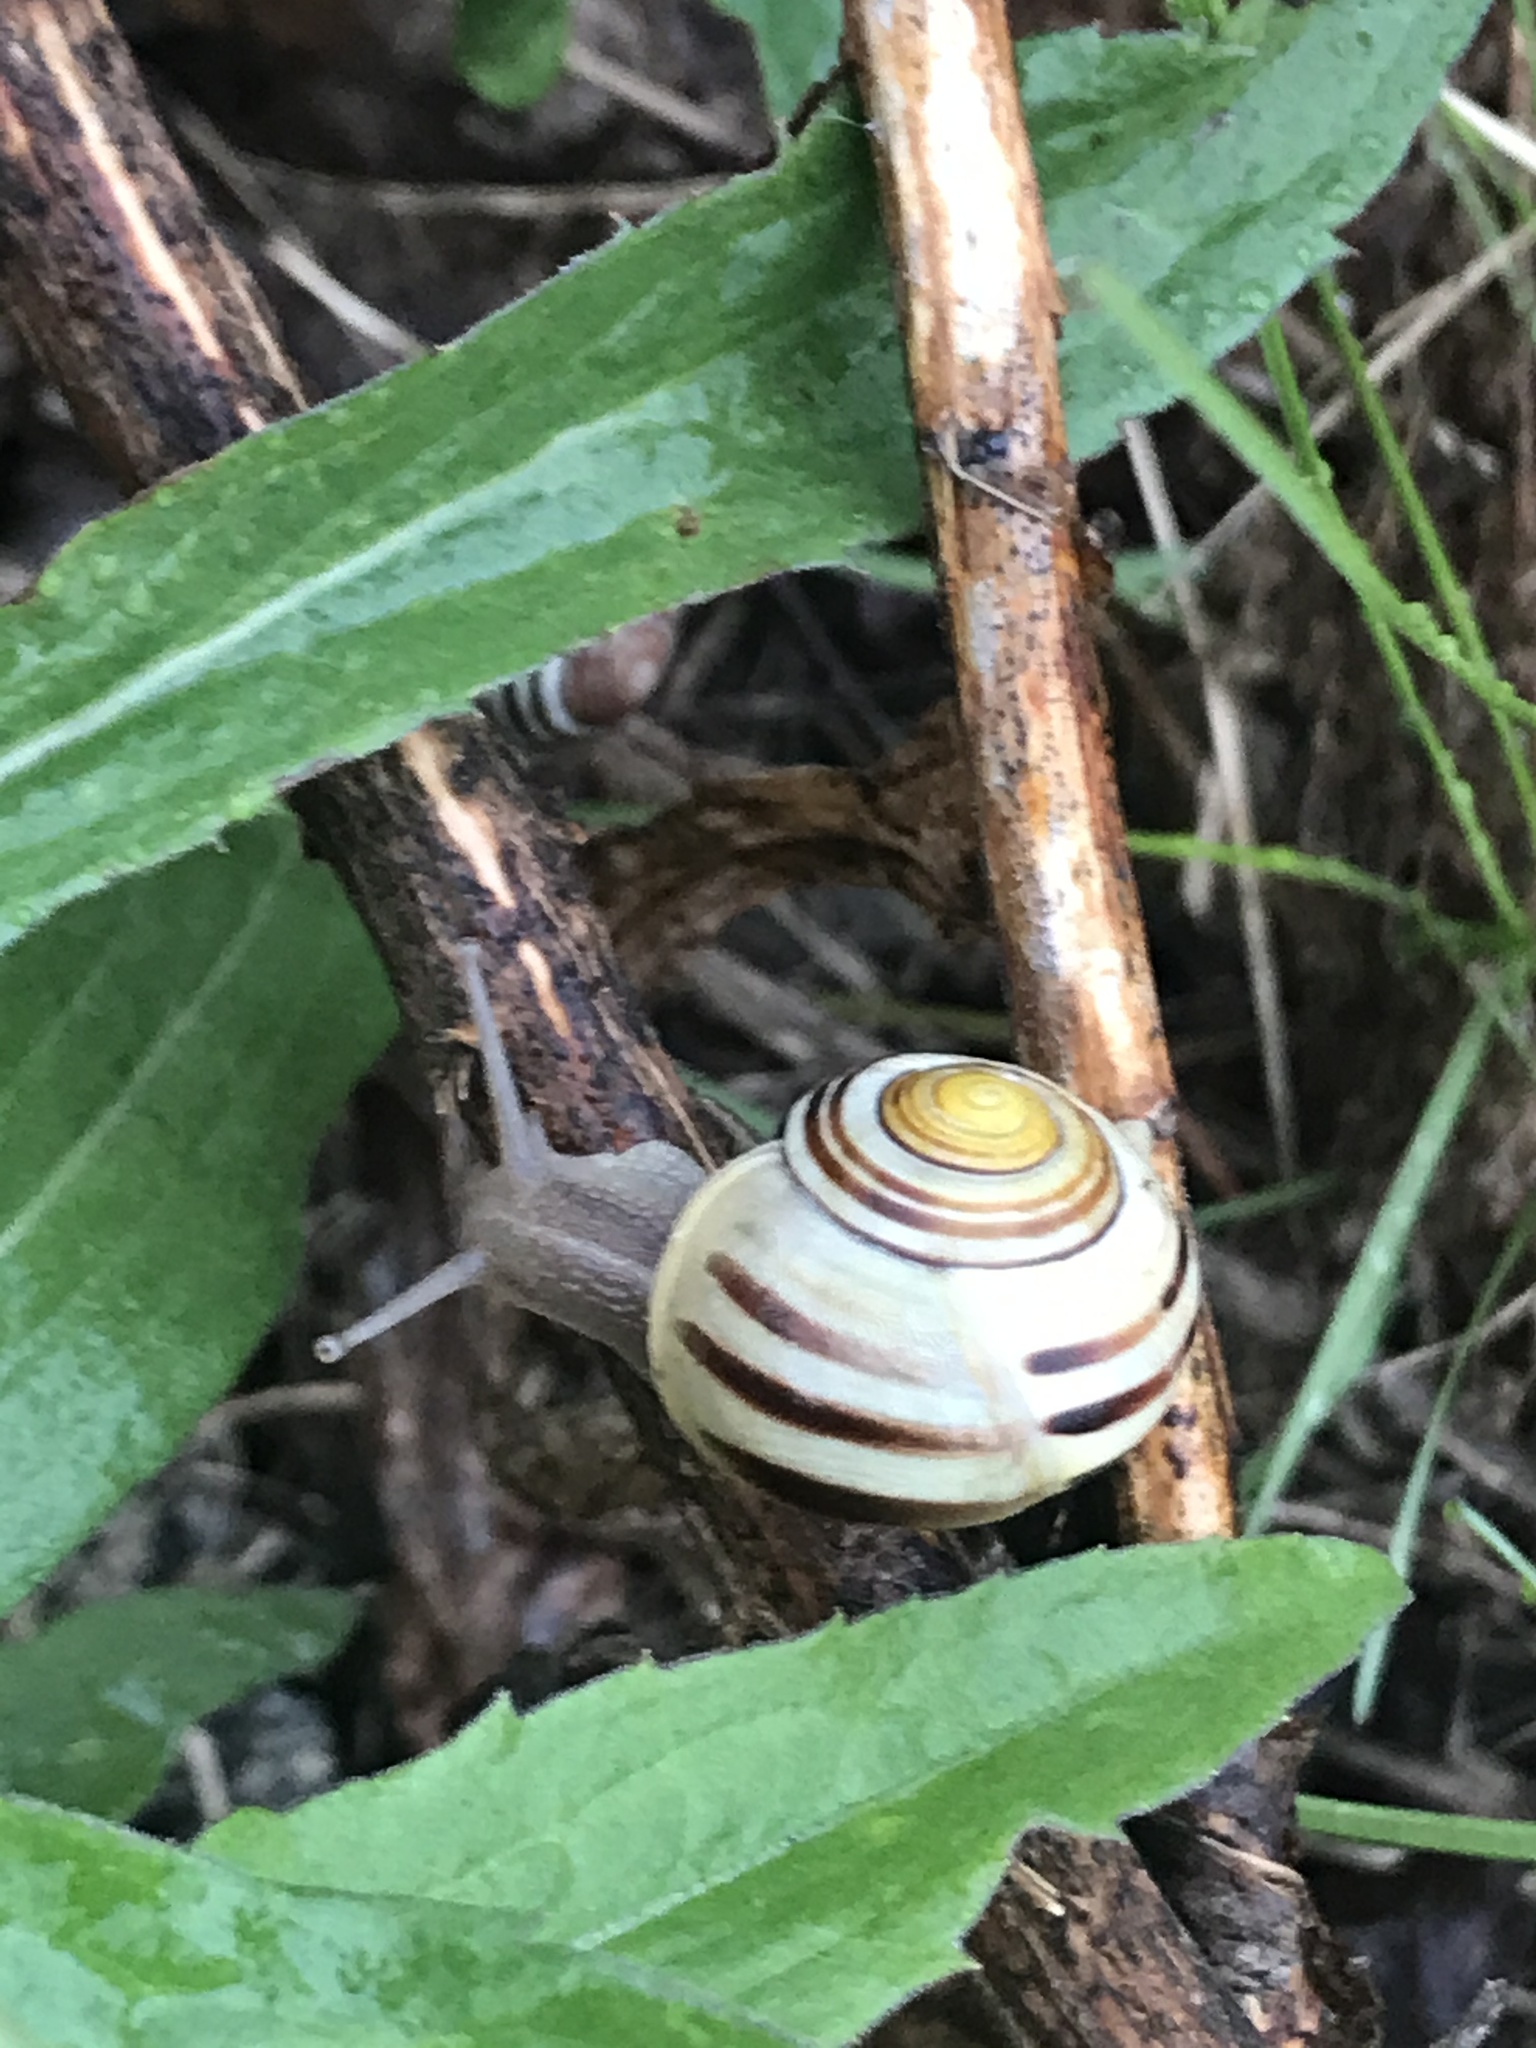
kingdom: Animalia
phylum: Mollusca
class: Gastropoda
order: Stylommatophora
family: Helicidae
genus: Cepaea
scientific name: Cepaea nemoralis
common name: Grovesnail
